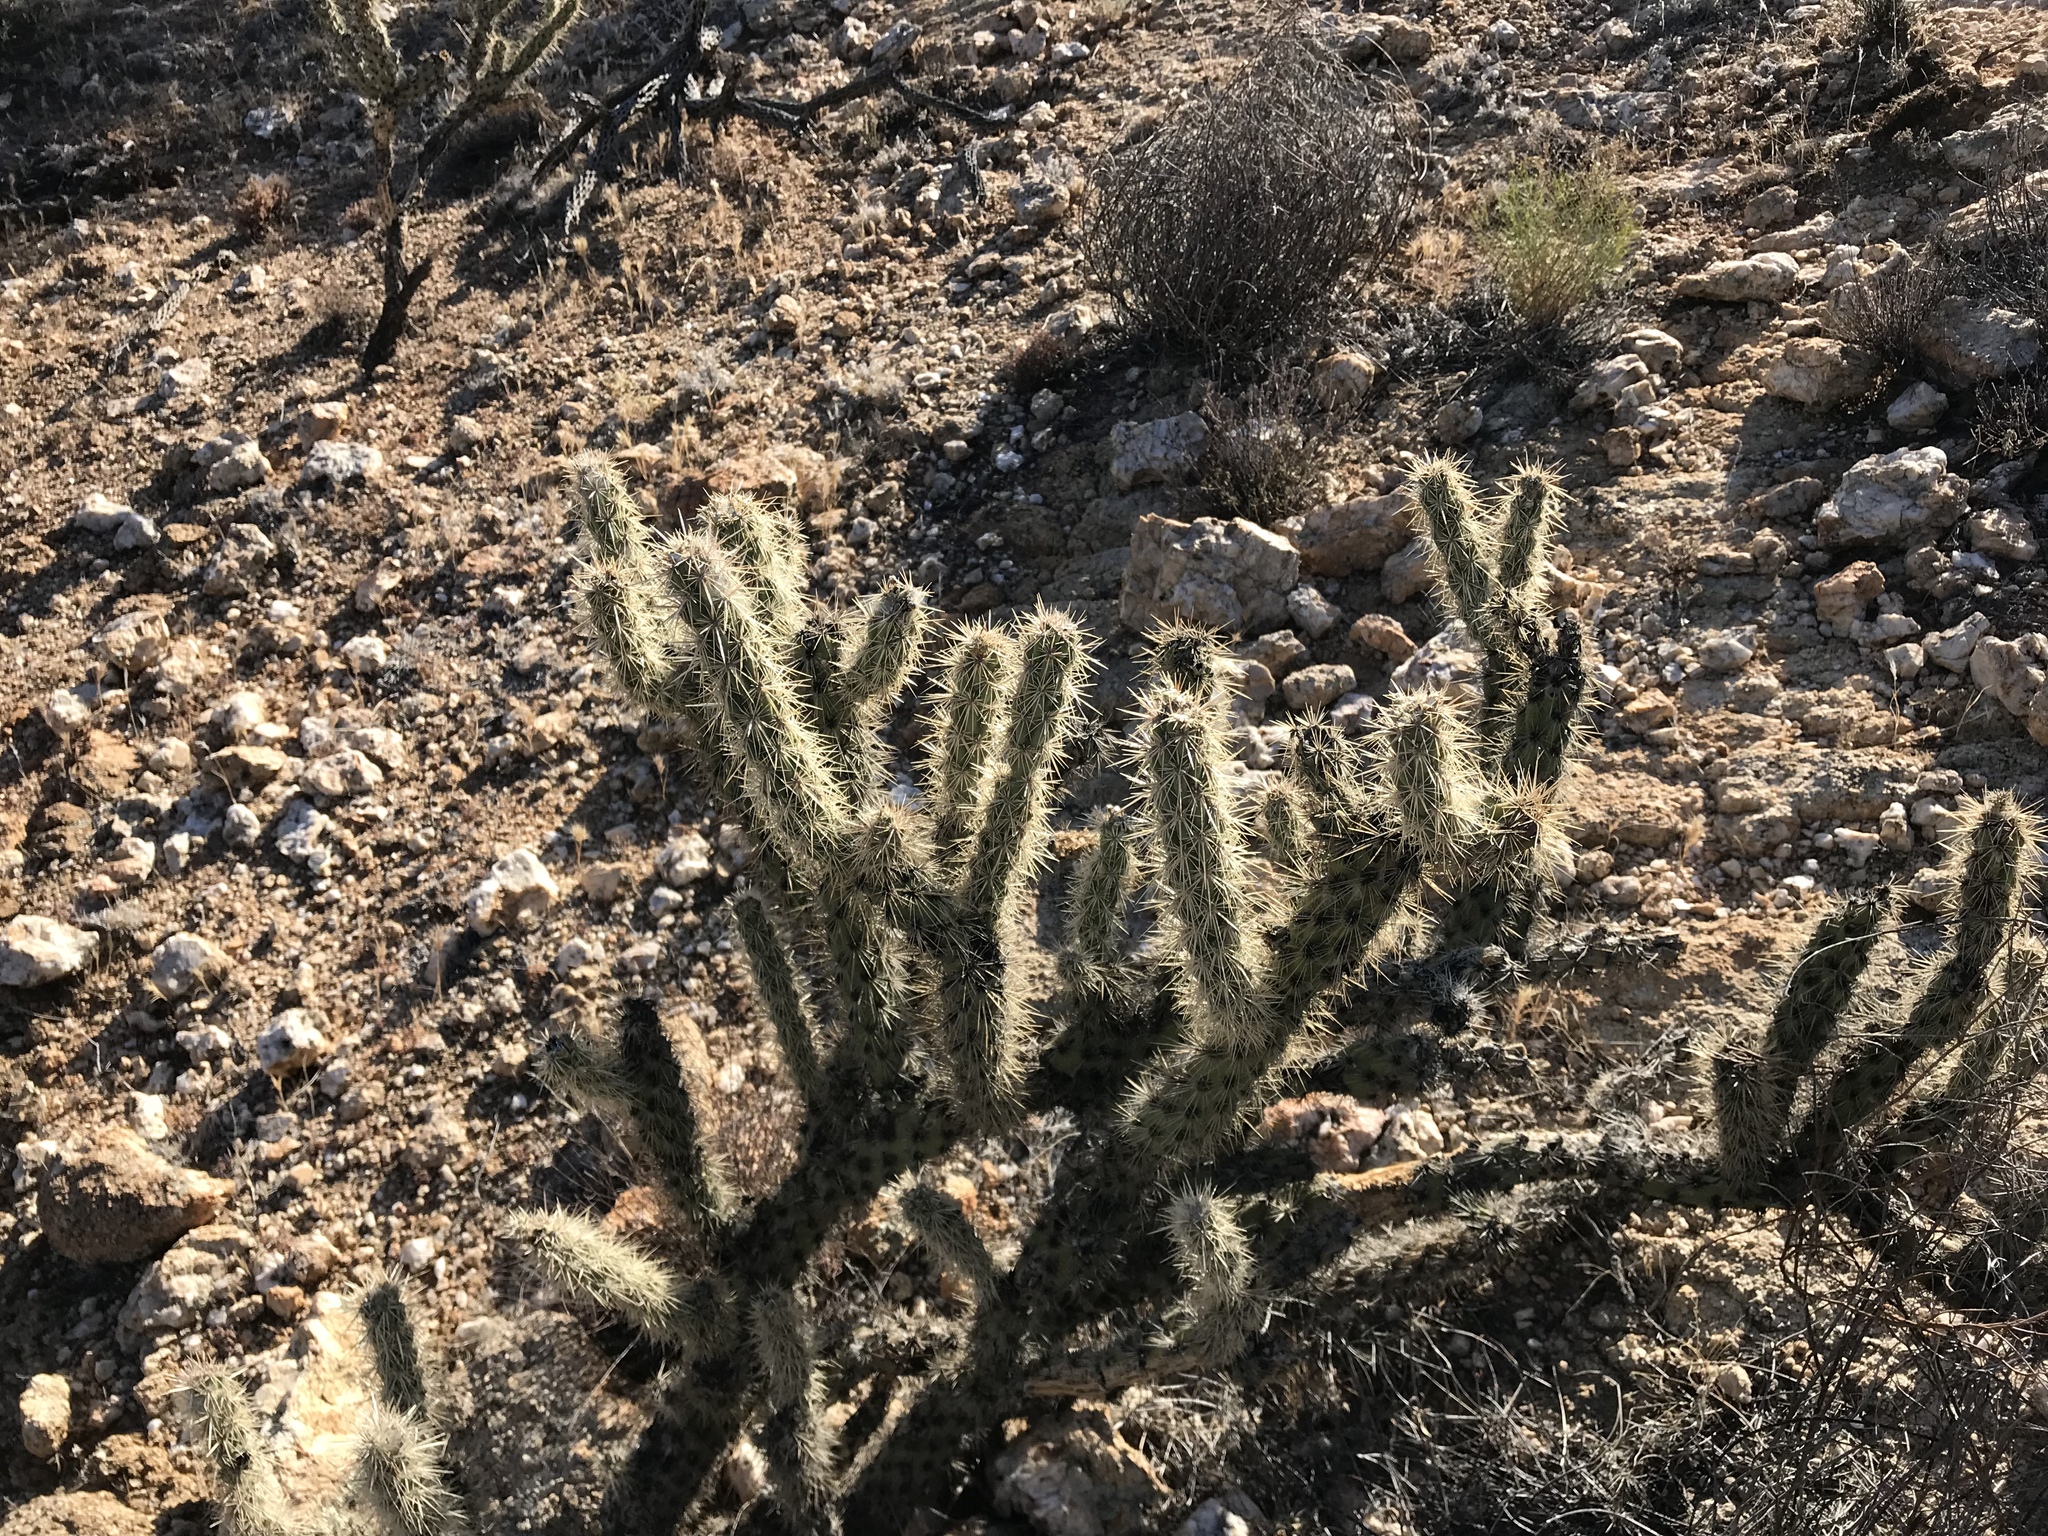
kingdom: Plantae
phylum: Tracheophyta
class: Magnoliopsida
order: Caryophyllales
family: Cactaceae
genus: Cylindropuntia
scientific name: Cylindropuntia acanthocarpa
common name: Buckhorn cholla
